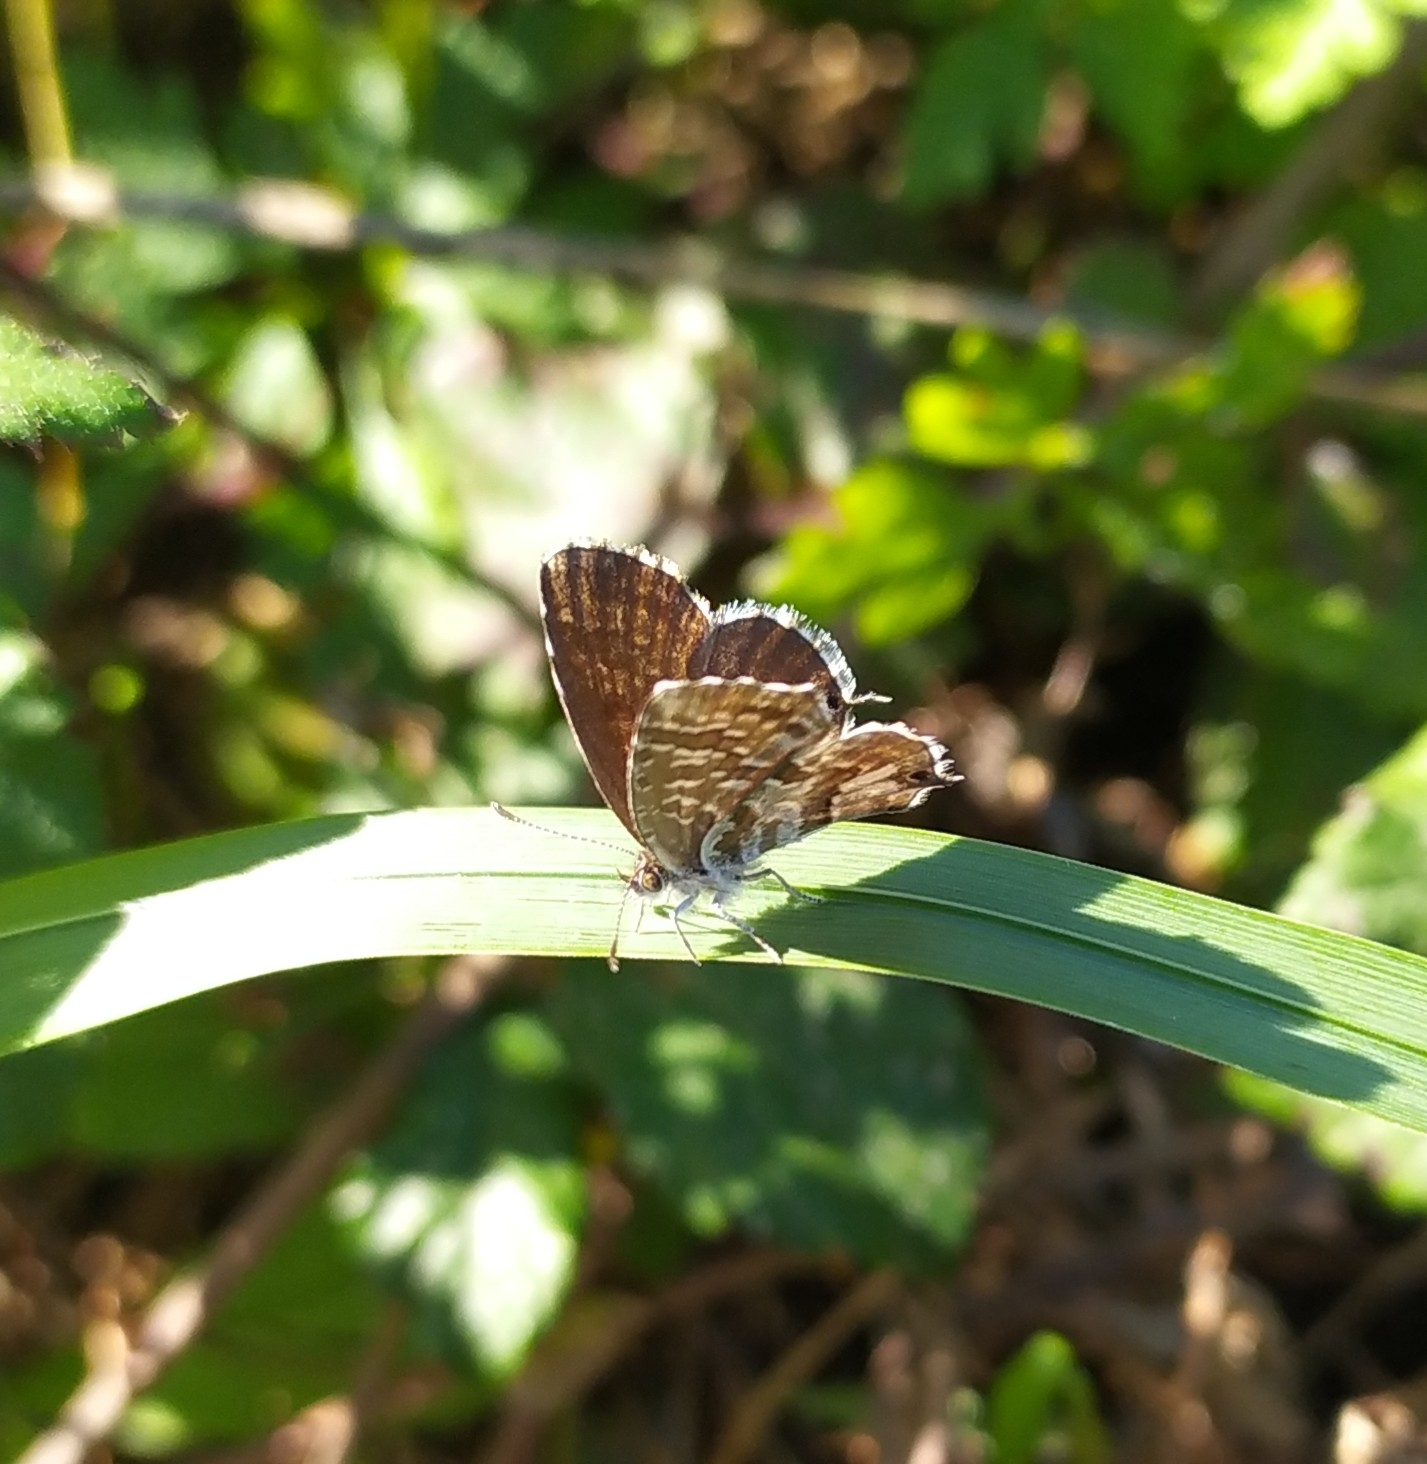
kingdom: Animalia
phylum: Arthropoda
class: Insecta
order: Lepidoptera
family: Lycaenidae
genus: Cacyreus
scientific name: Cacyreus marshalli
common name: Geranium bronze
